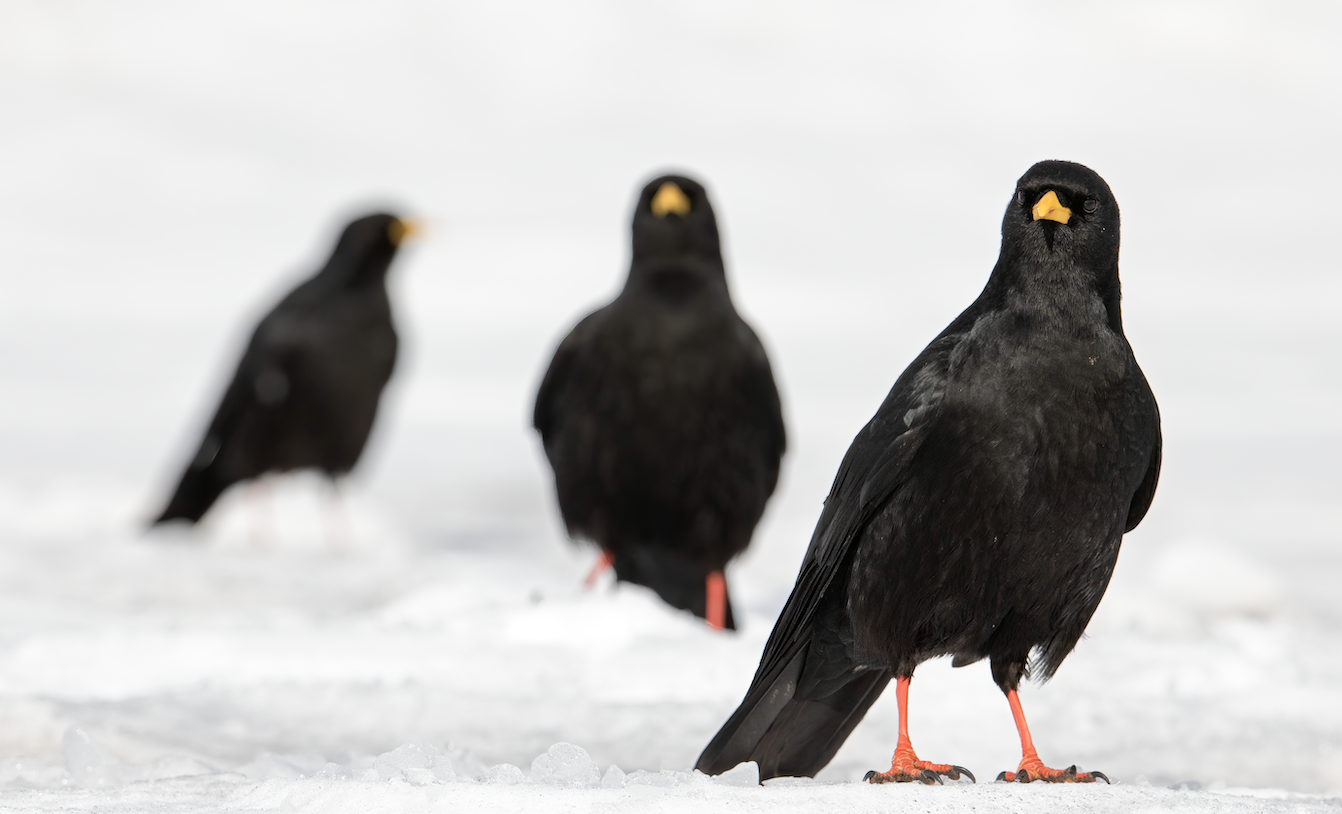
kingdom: Animalia
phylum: Chordata
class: Aves
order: Passeriformes
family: Corvidae
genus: Pyrrhocorax
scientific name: Pyrrhocorax graculus
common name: Alpine chough
